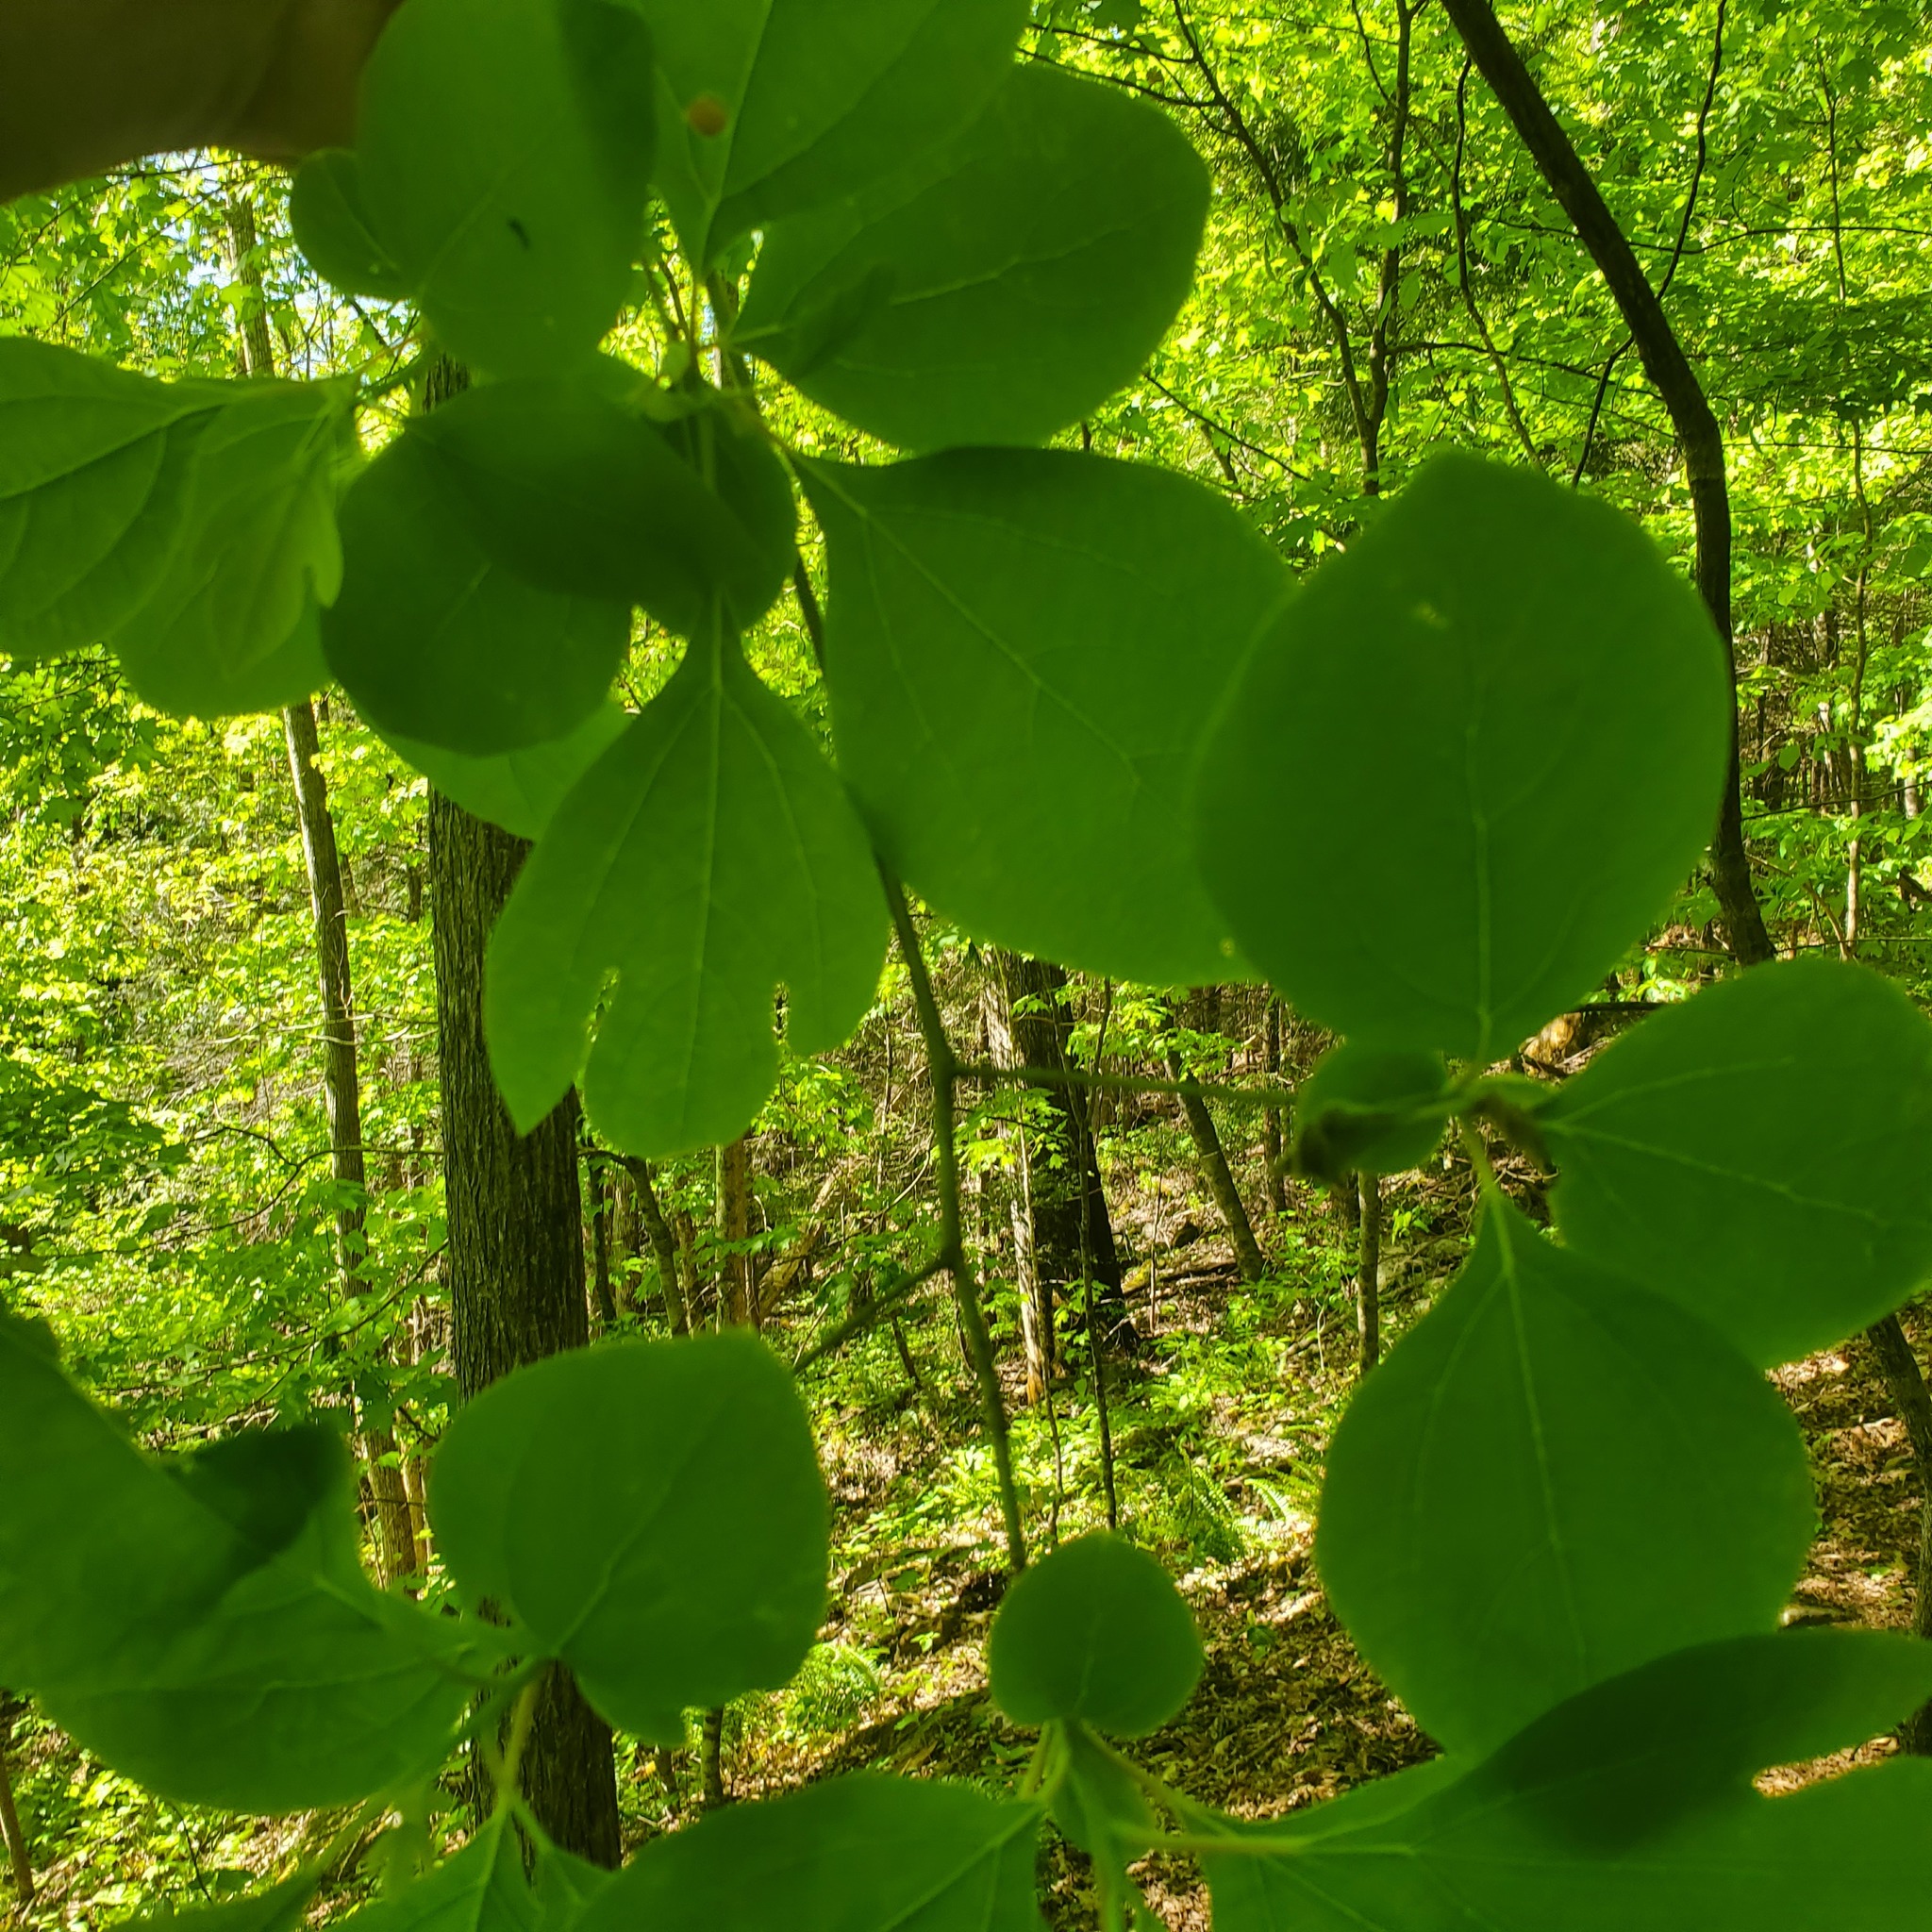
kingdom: Plantae
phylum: Tracheophyta
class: Magnoliopsida
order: Laurales
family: Lauraceae
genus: Sassafras
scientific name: Sassafras albidum
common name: Sassafras
